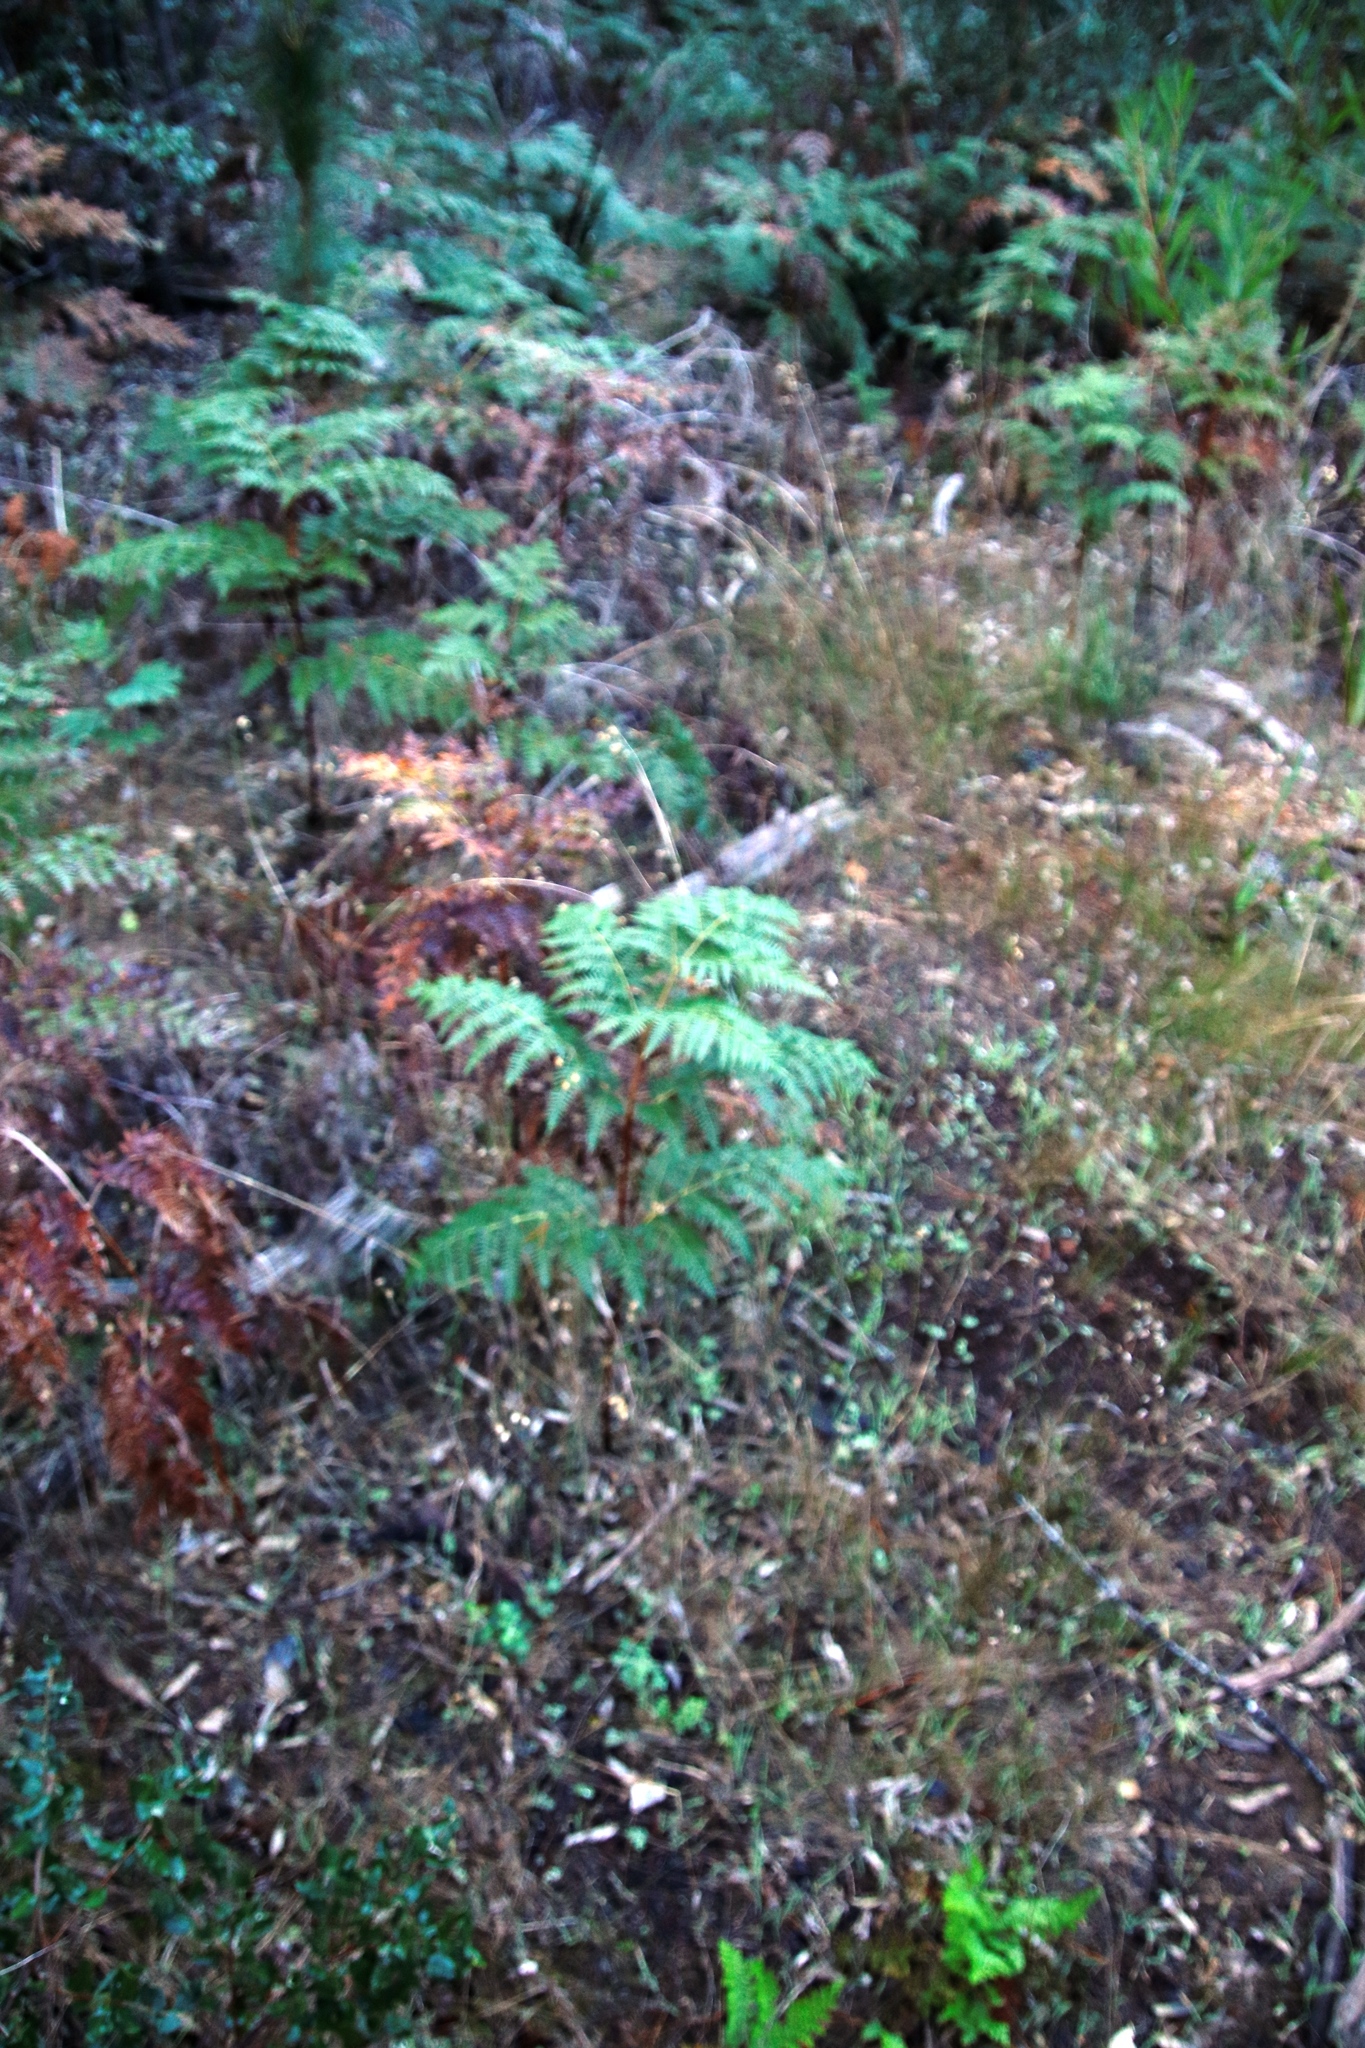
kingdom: Plantae
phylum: Tracheophyta
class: Polypodiopsida
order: Polypodiales
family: Dennstaedtiaceae
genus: Pteridium
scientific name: Pteridium aquilinum
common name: Bracken
